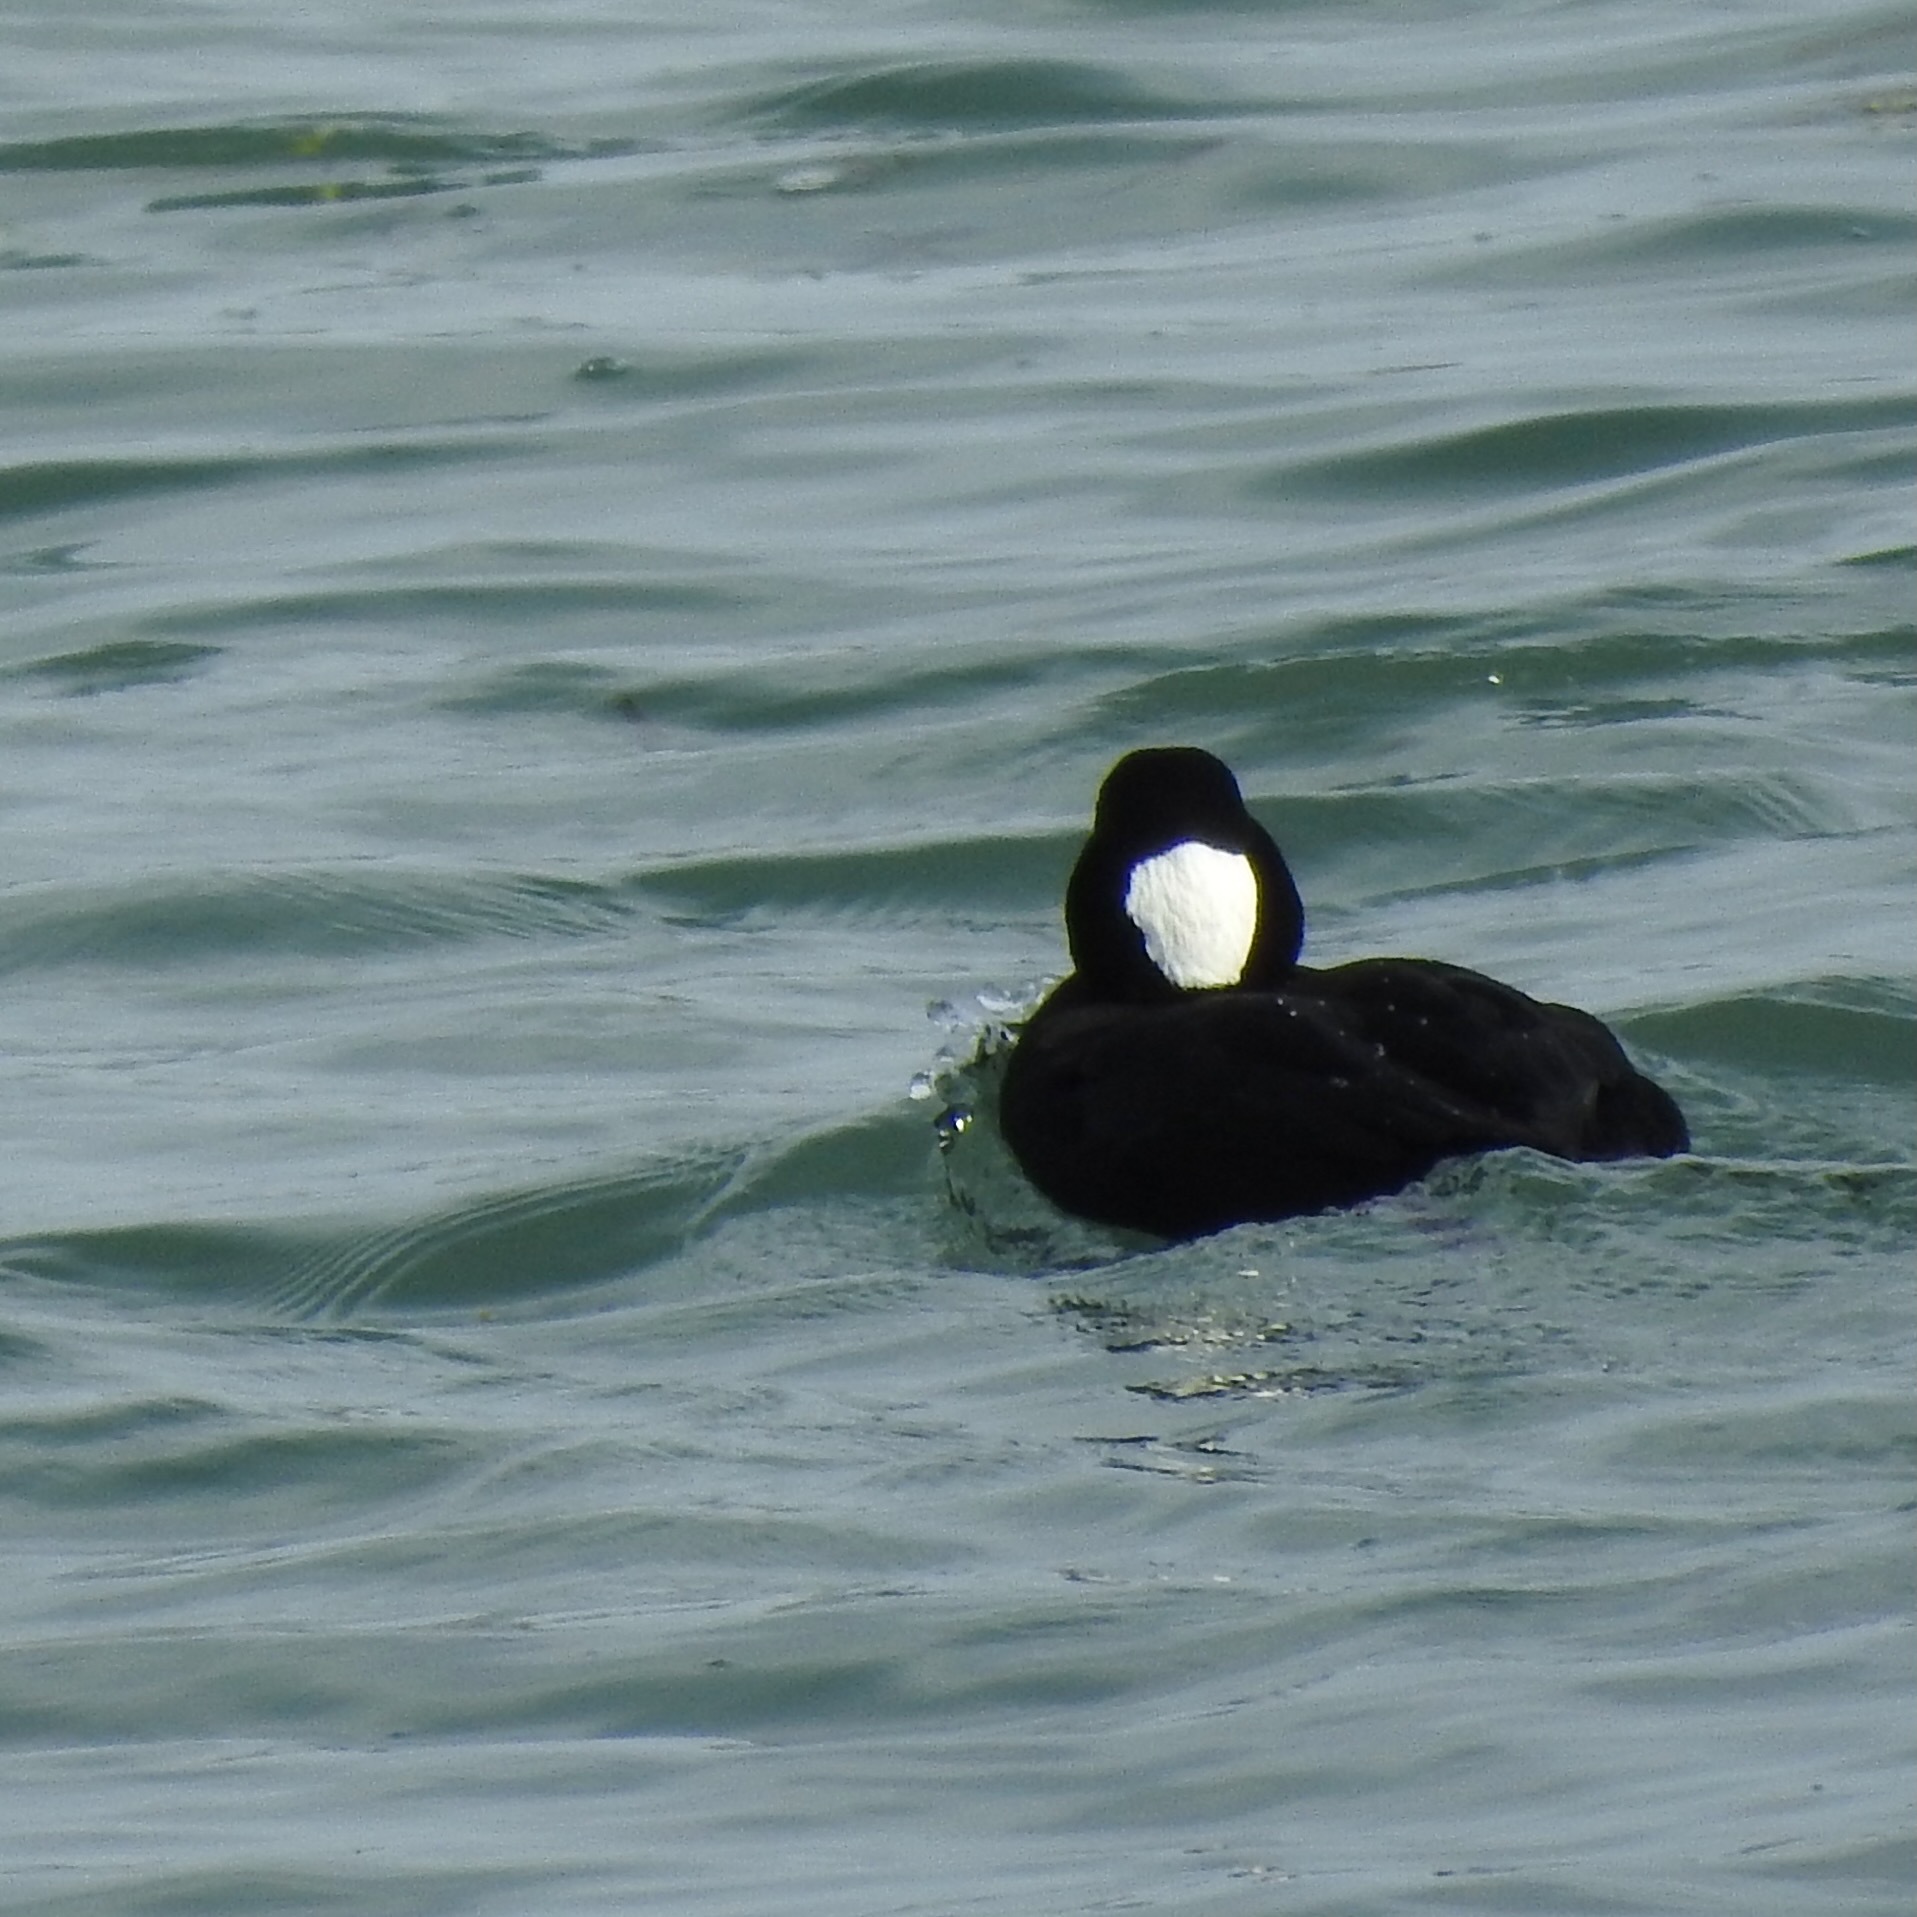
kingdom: Animalia
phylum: Chordata
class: Aves
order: Anseriformes
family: Anatidae
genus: Melanitta
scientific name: Melanitta perspicillata
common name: Surf scoter
